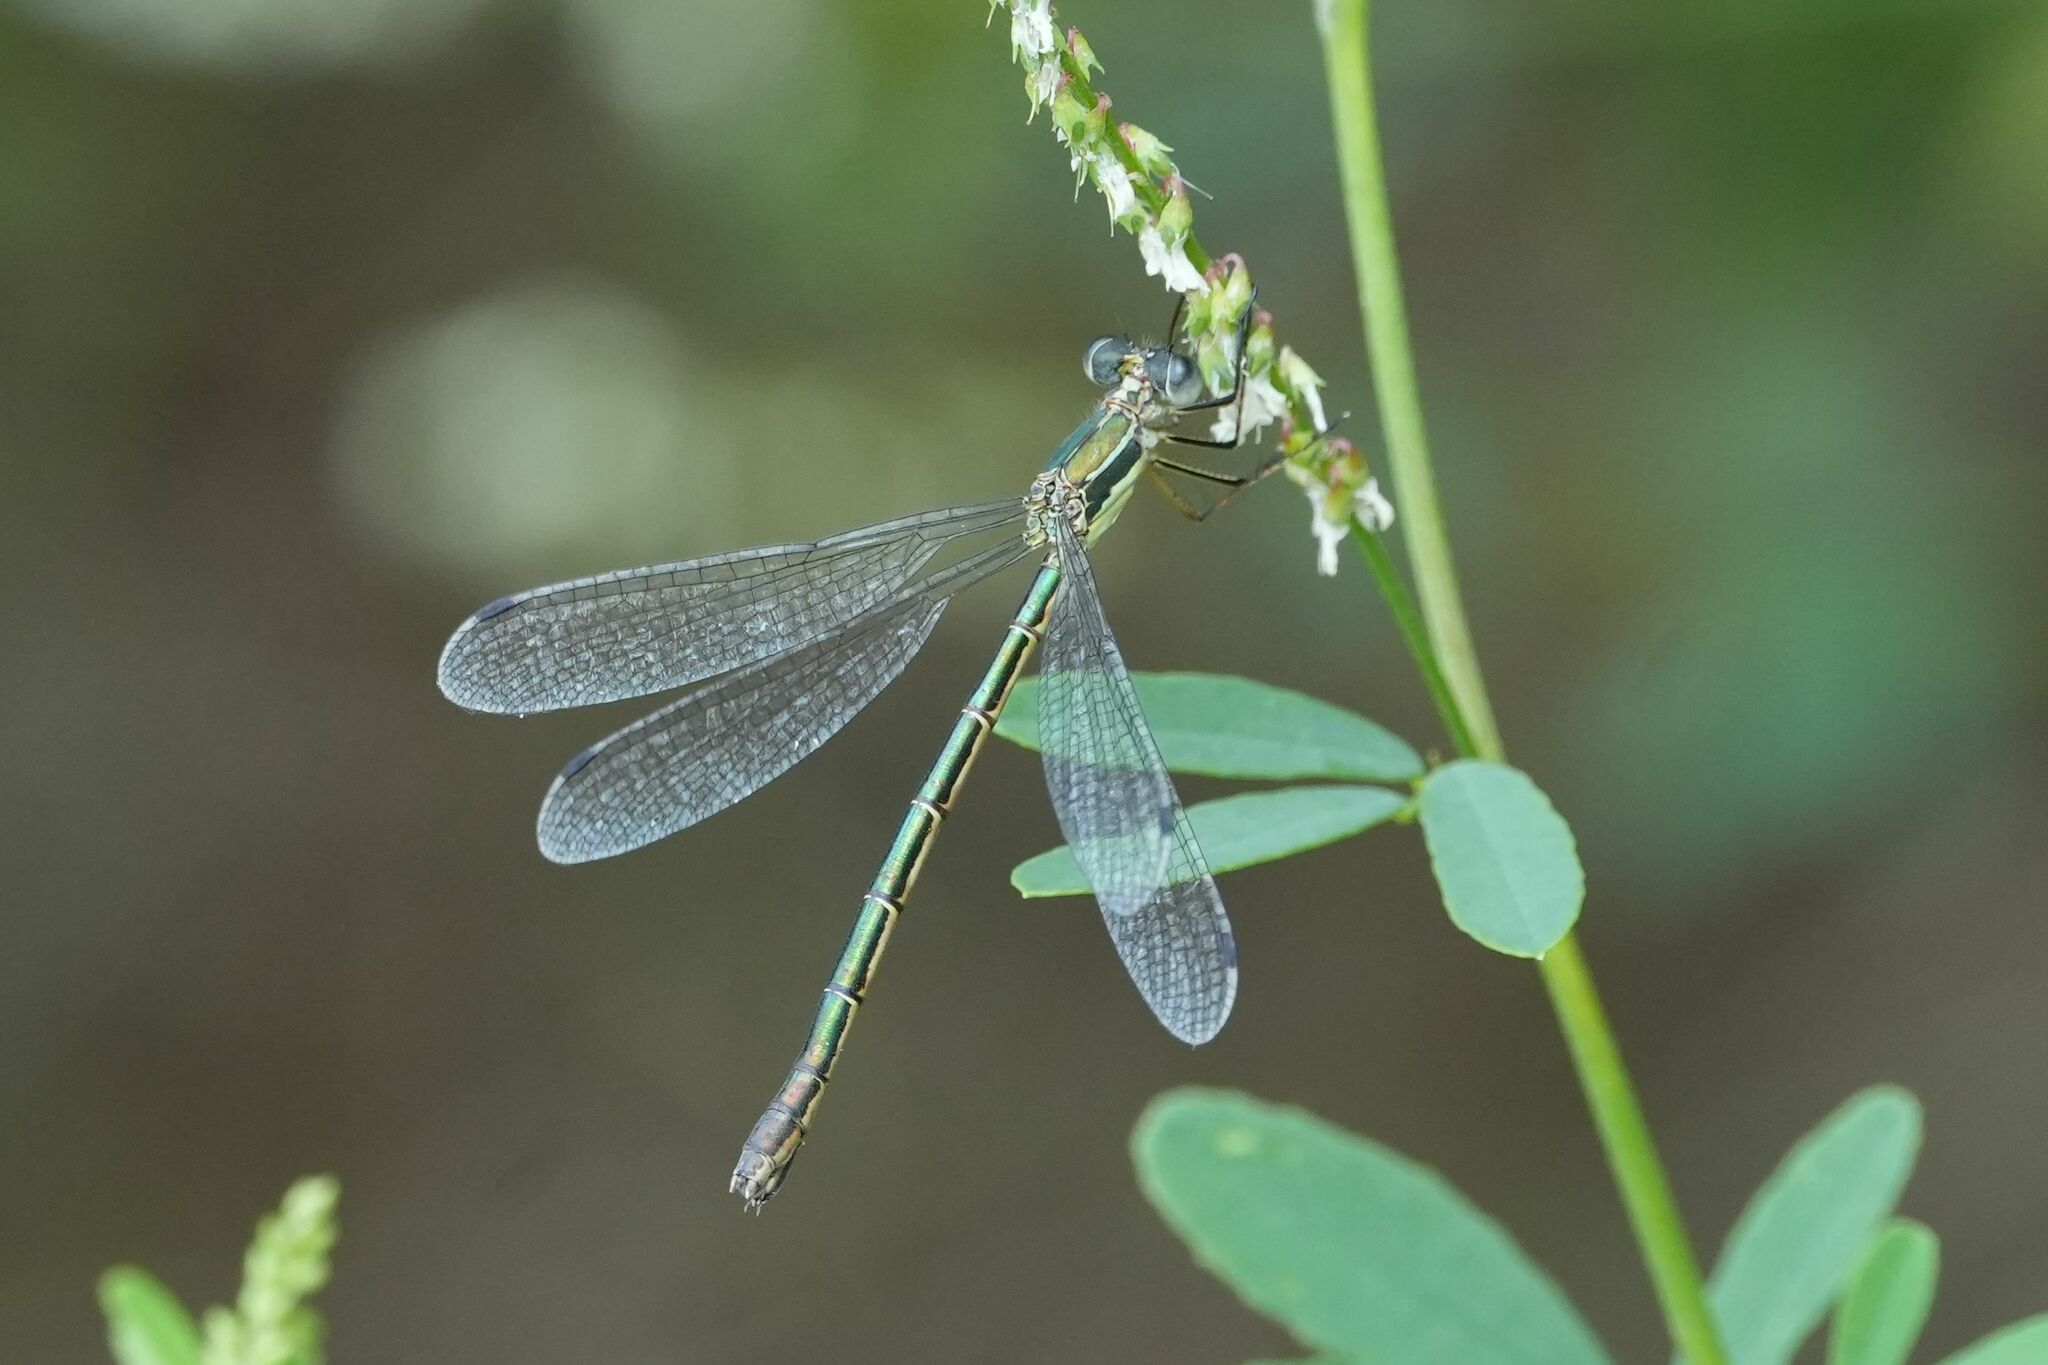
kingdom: Animalia
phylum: Arthropoda
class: Insecta
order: Odonata
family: Lestidae
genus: Lestes
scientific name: Lestes dryas
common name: Scarce emerald damselfly
